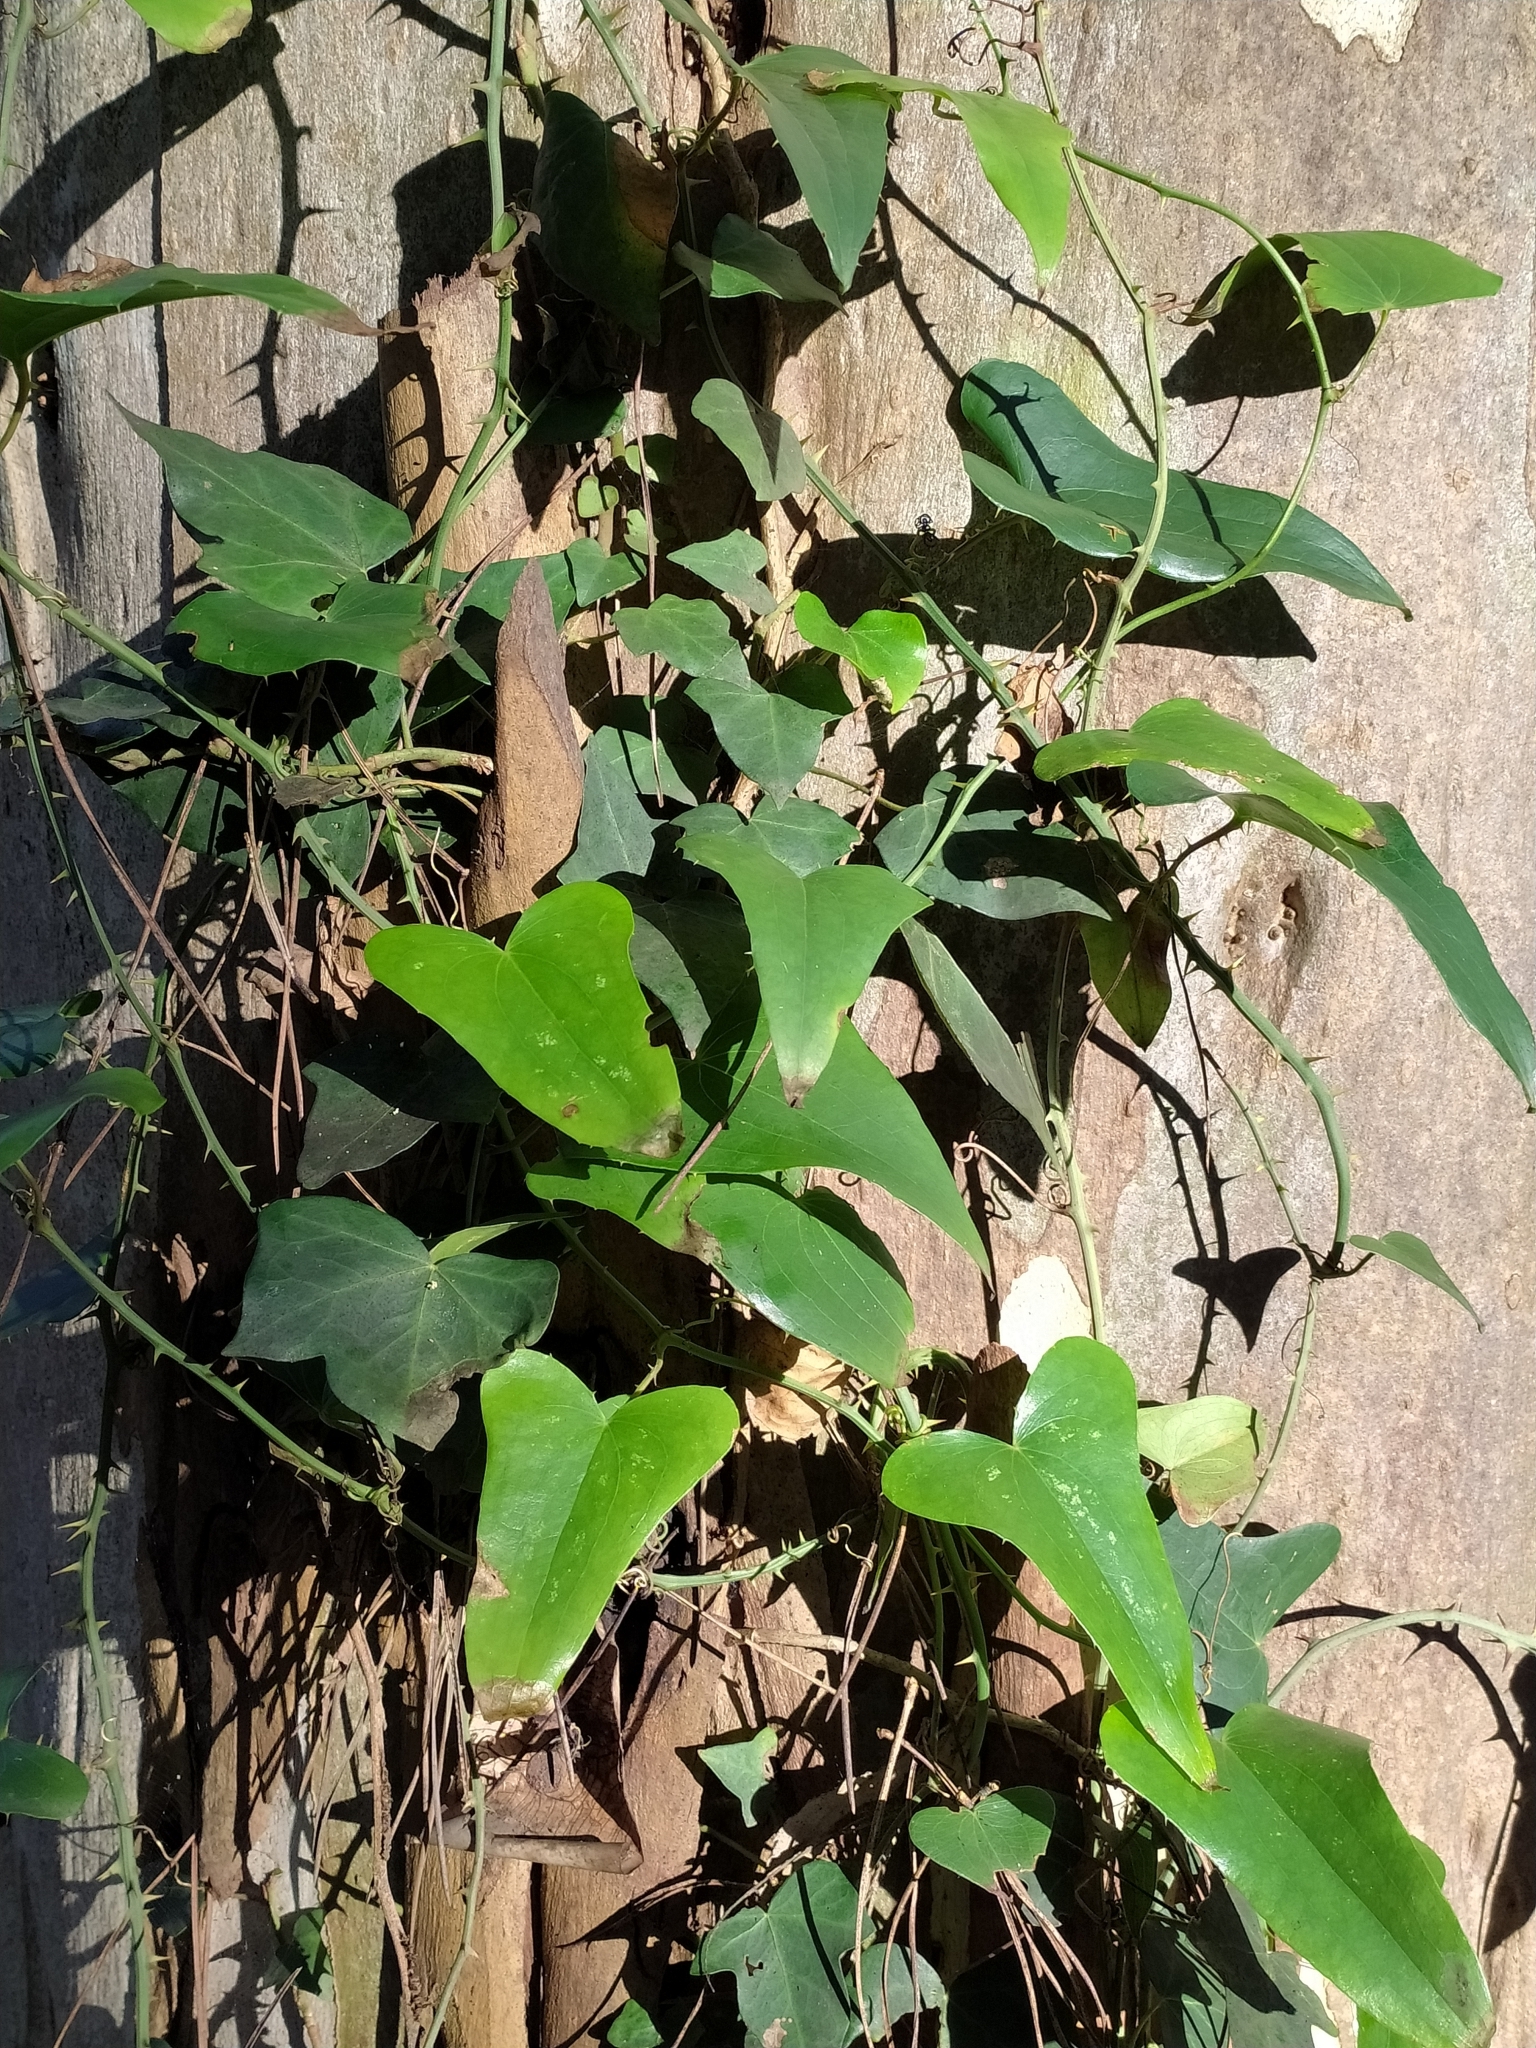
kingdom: Plantae
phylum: Tracheophyta
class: Liliopsida
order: Liliales
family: Smilacaceae
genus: Smilax
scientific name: Smilax aspera
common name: Common smilax
